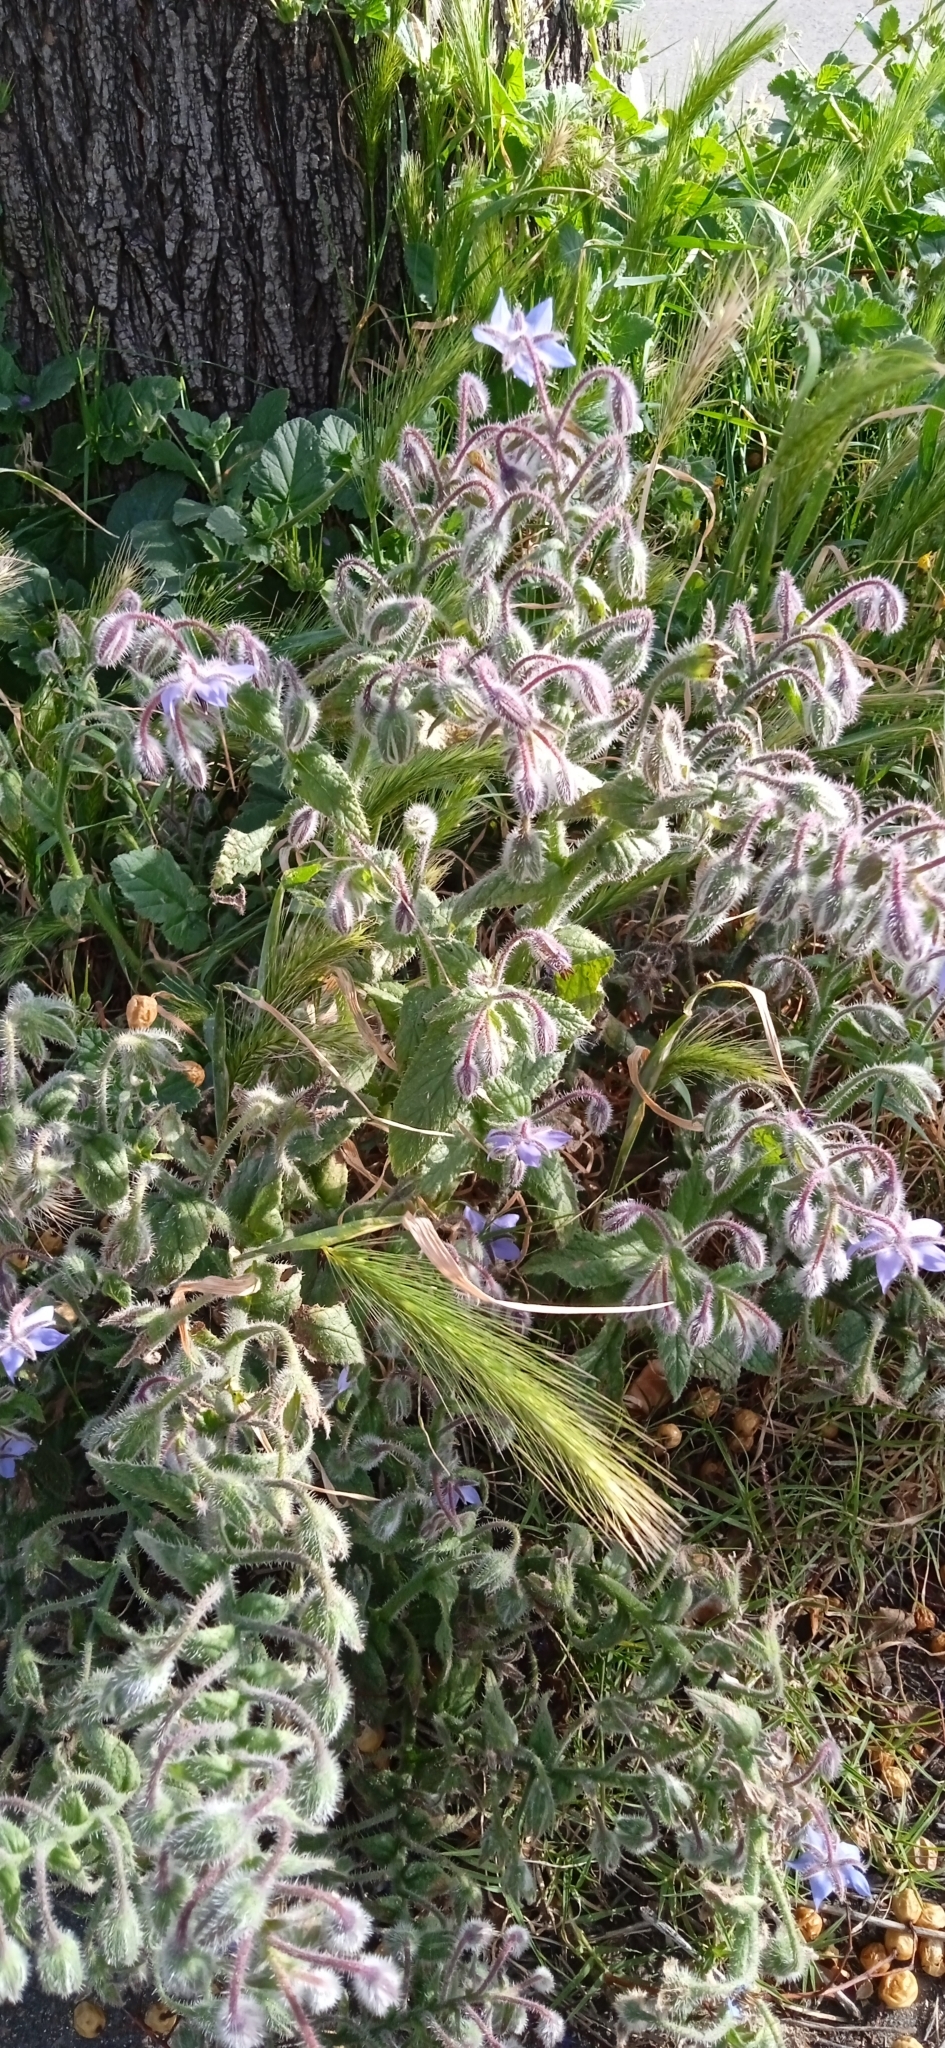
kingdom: Plantae
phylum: Tracheophyta
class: Magnoliopsida
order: Boraginales
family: Boraginaceae
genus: Borago
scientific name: Borago officinalis
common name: Borage
